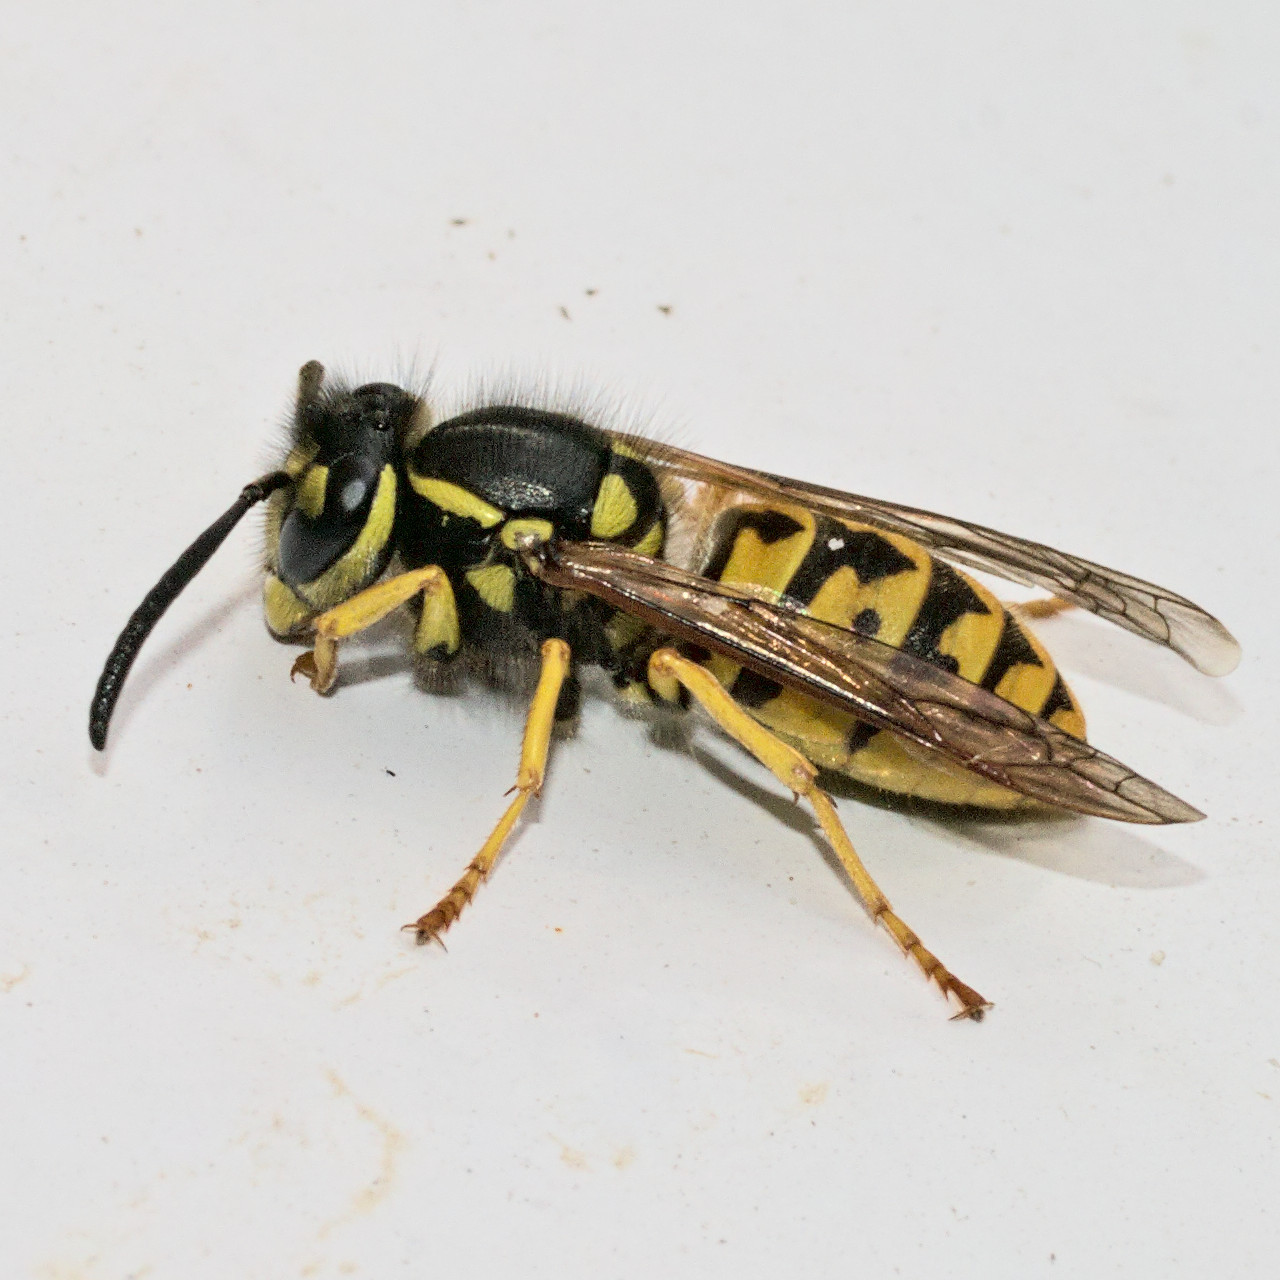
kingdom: Animalia
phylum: Arthropoda
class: Insecta
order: Hymenoptera
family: Vespidae
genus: Vespula
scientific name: Vespula germanica
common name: German wasp
